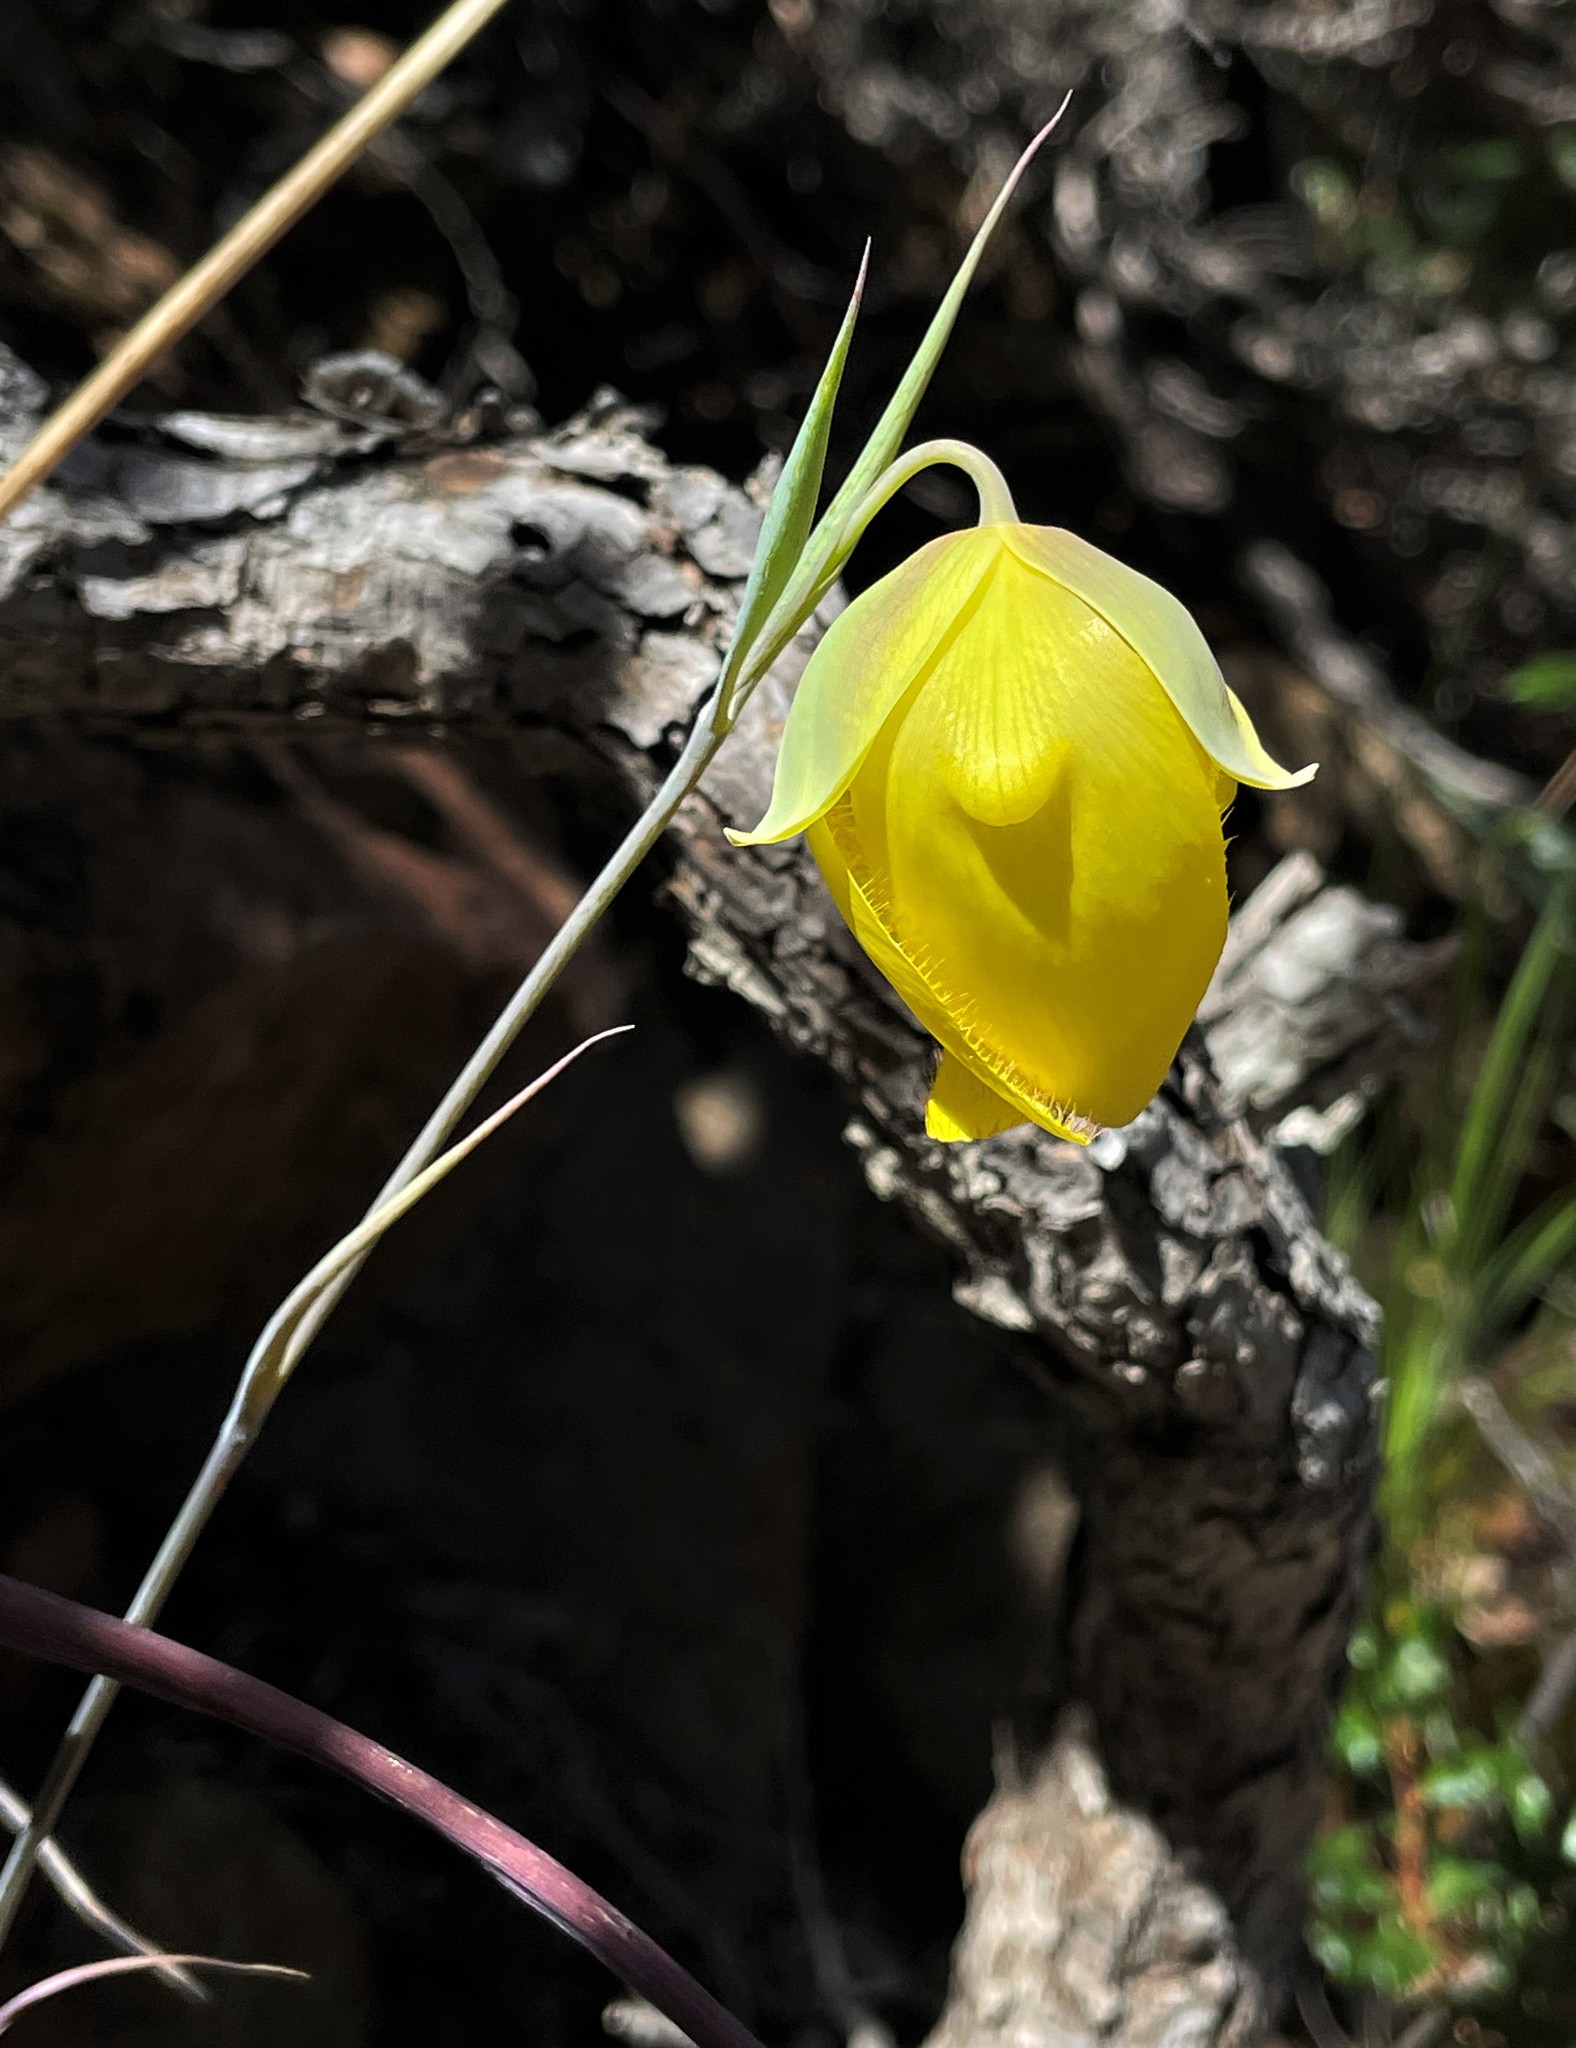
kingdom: Plantae
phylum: Tracheophyta
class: Liliopsida
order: Liliales
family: Liliaceae
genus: Calochortus
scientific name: Calochortus raichei
